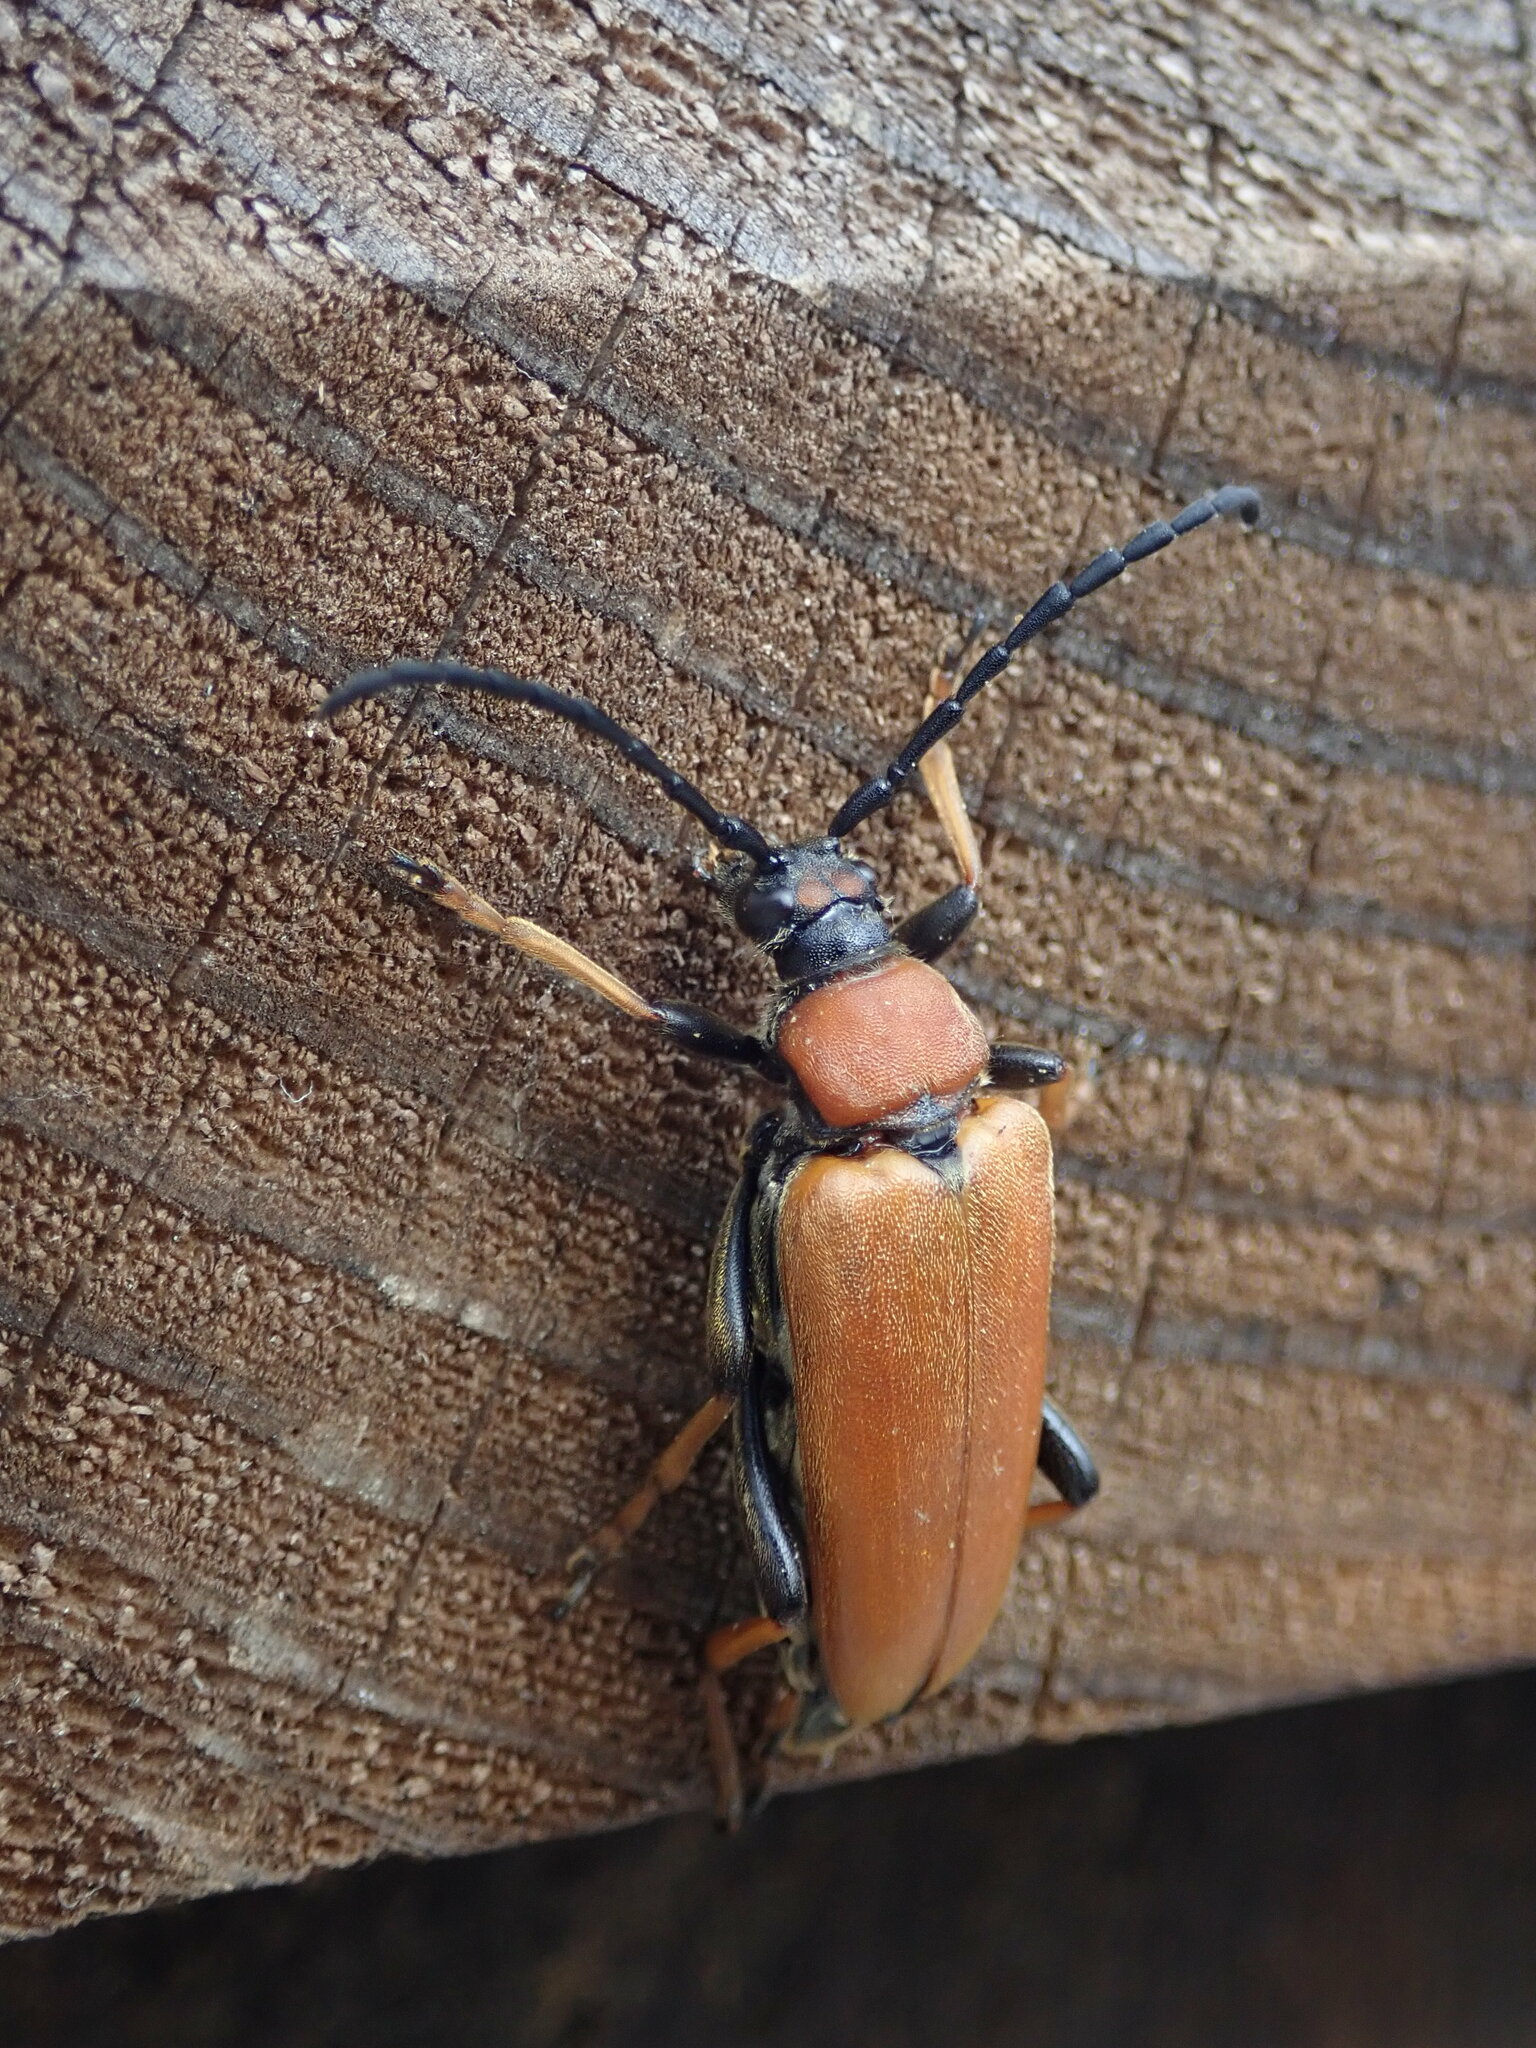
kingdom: Animalia
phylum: Arthropoda
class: Insecta
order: Coleoptera
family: Cerambycidae
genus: Stictoleptura
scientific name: Stictoleptura rubra
